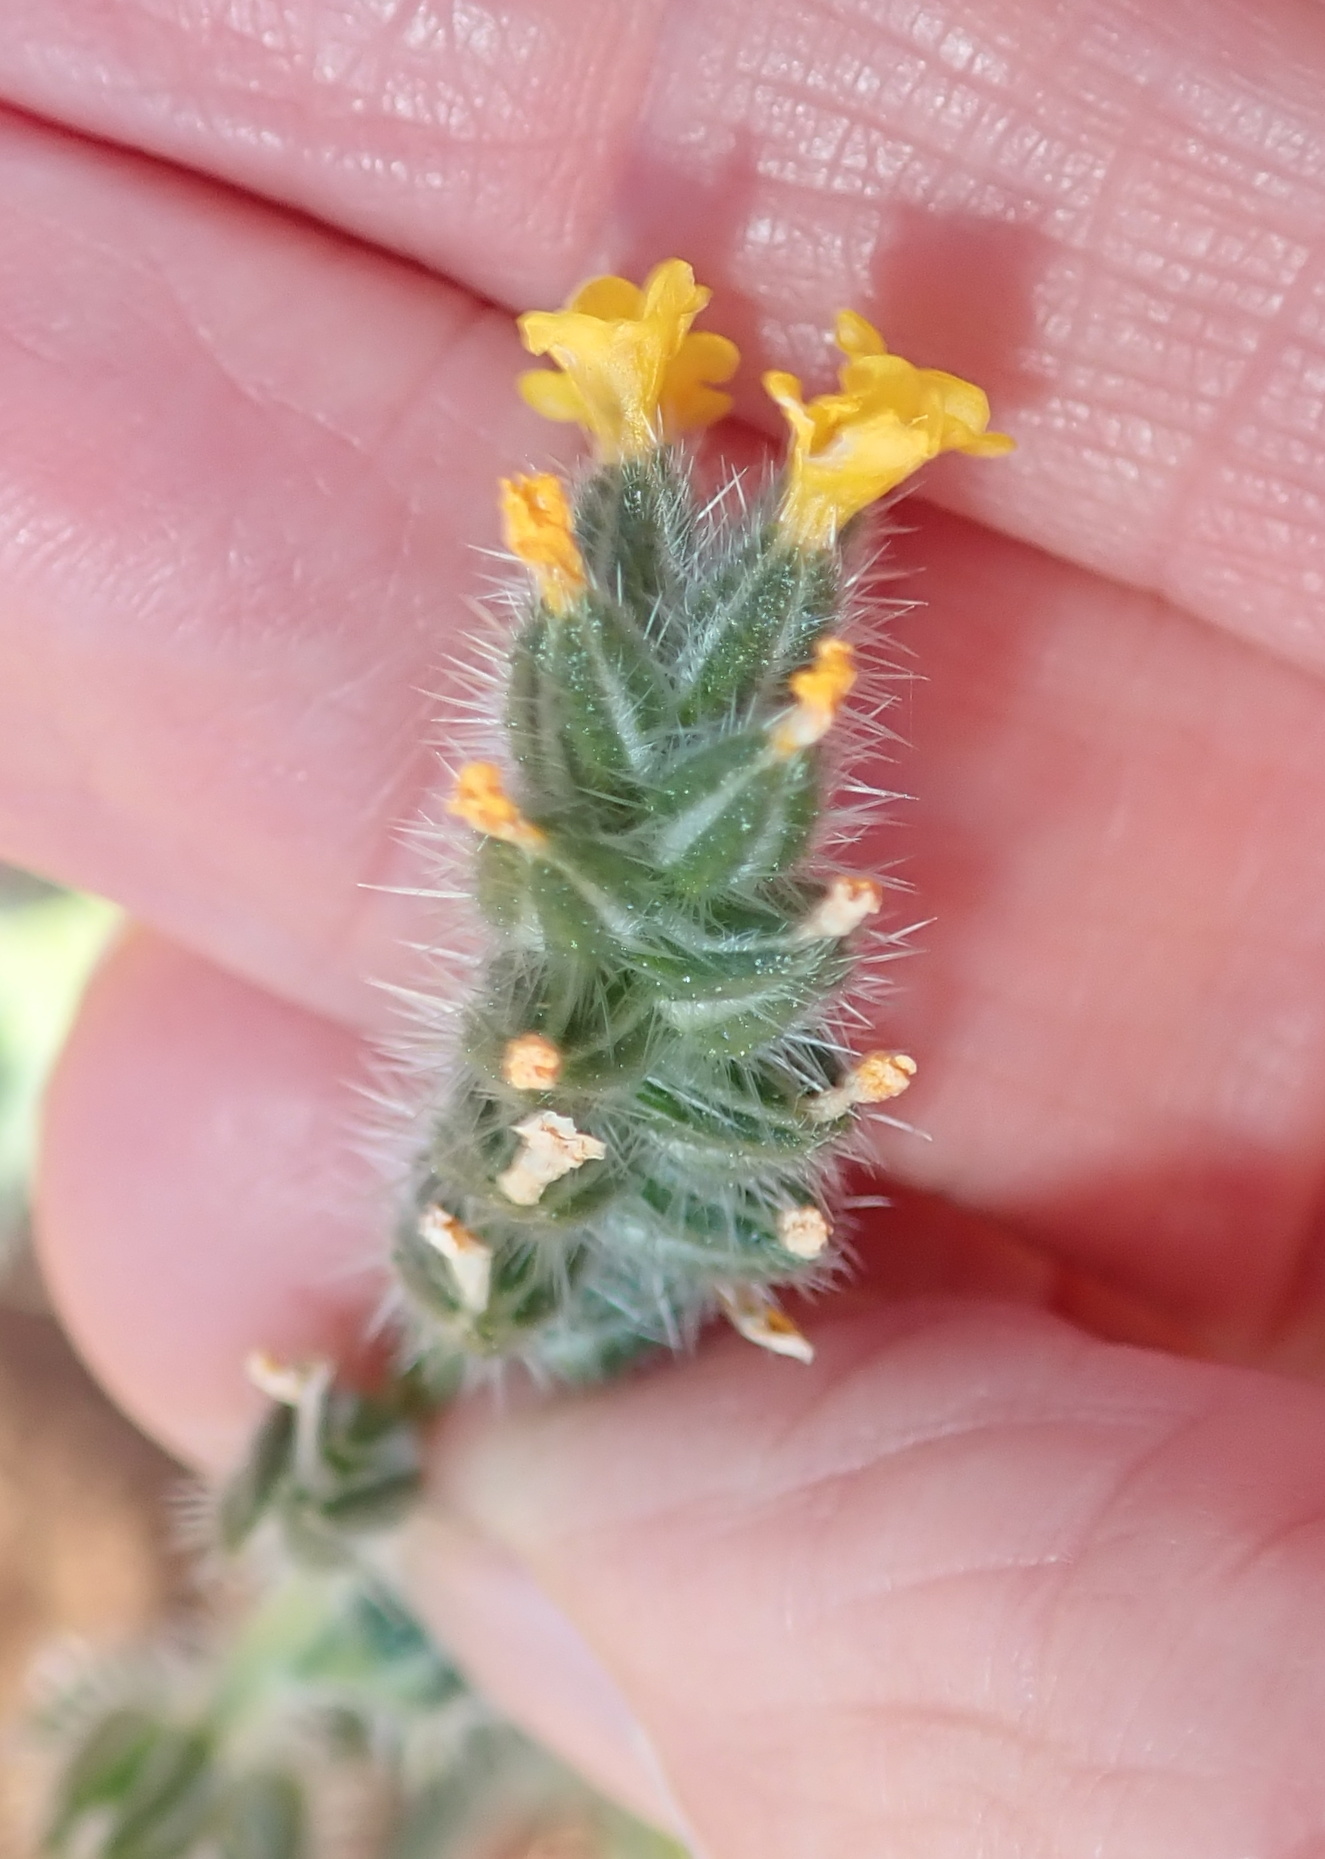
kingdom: Plantae
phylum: Tracheophyta
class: Magnoliopsida
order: Boraginales
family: Boraginaceae
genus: Amsinckia
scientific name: Amsinckia menziesii
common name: Menzies' fiddleneck
